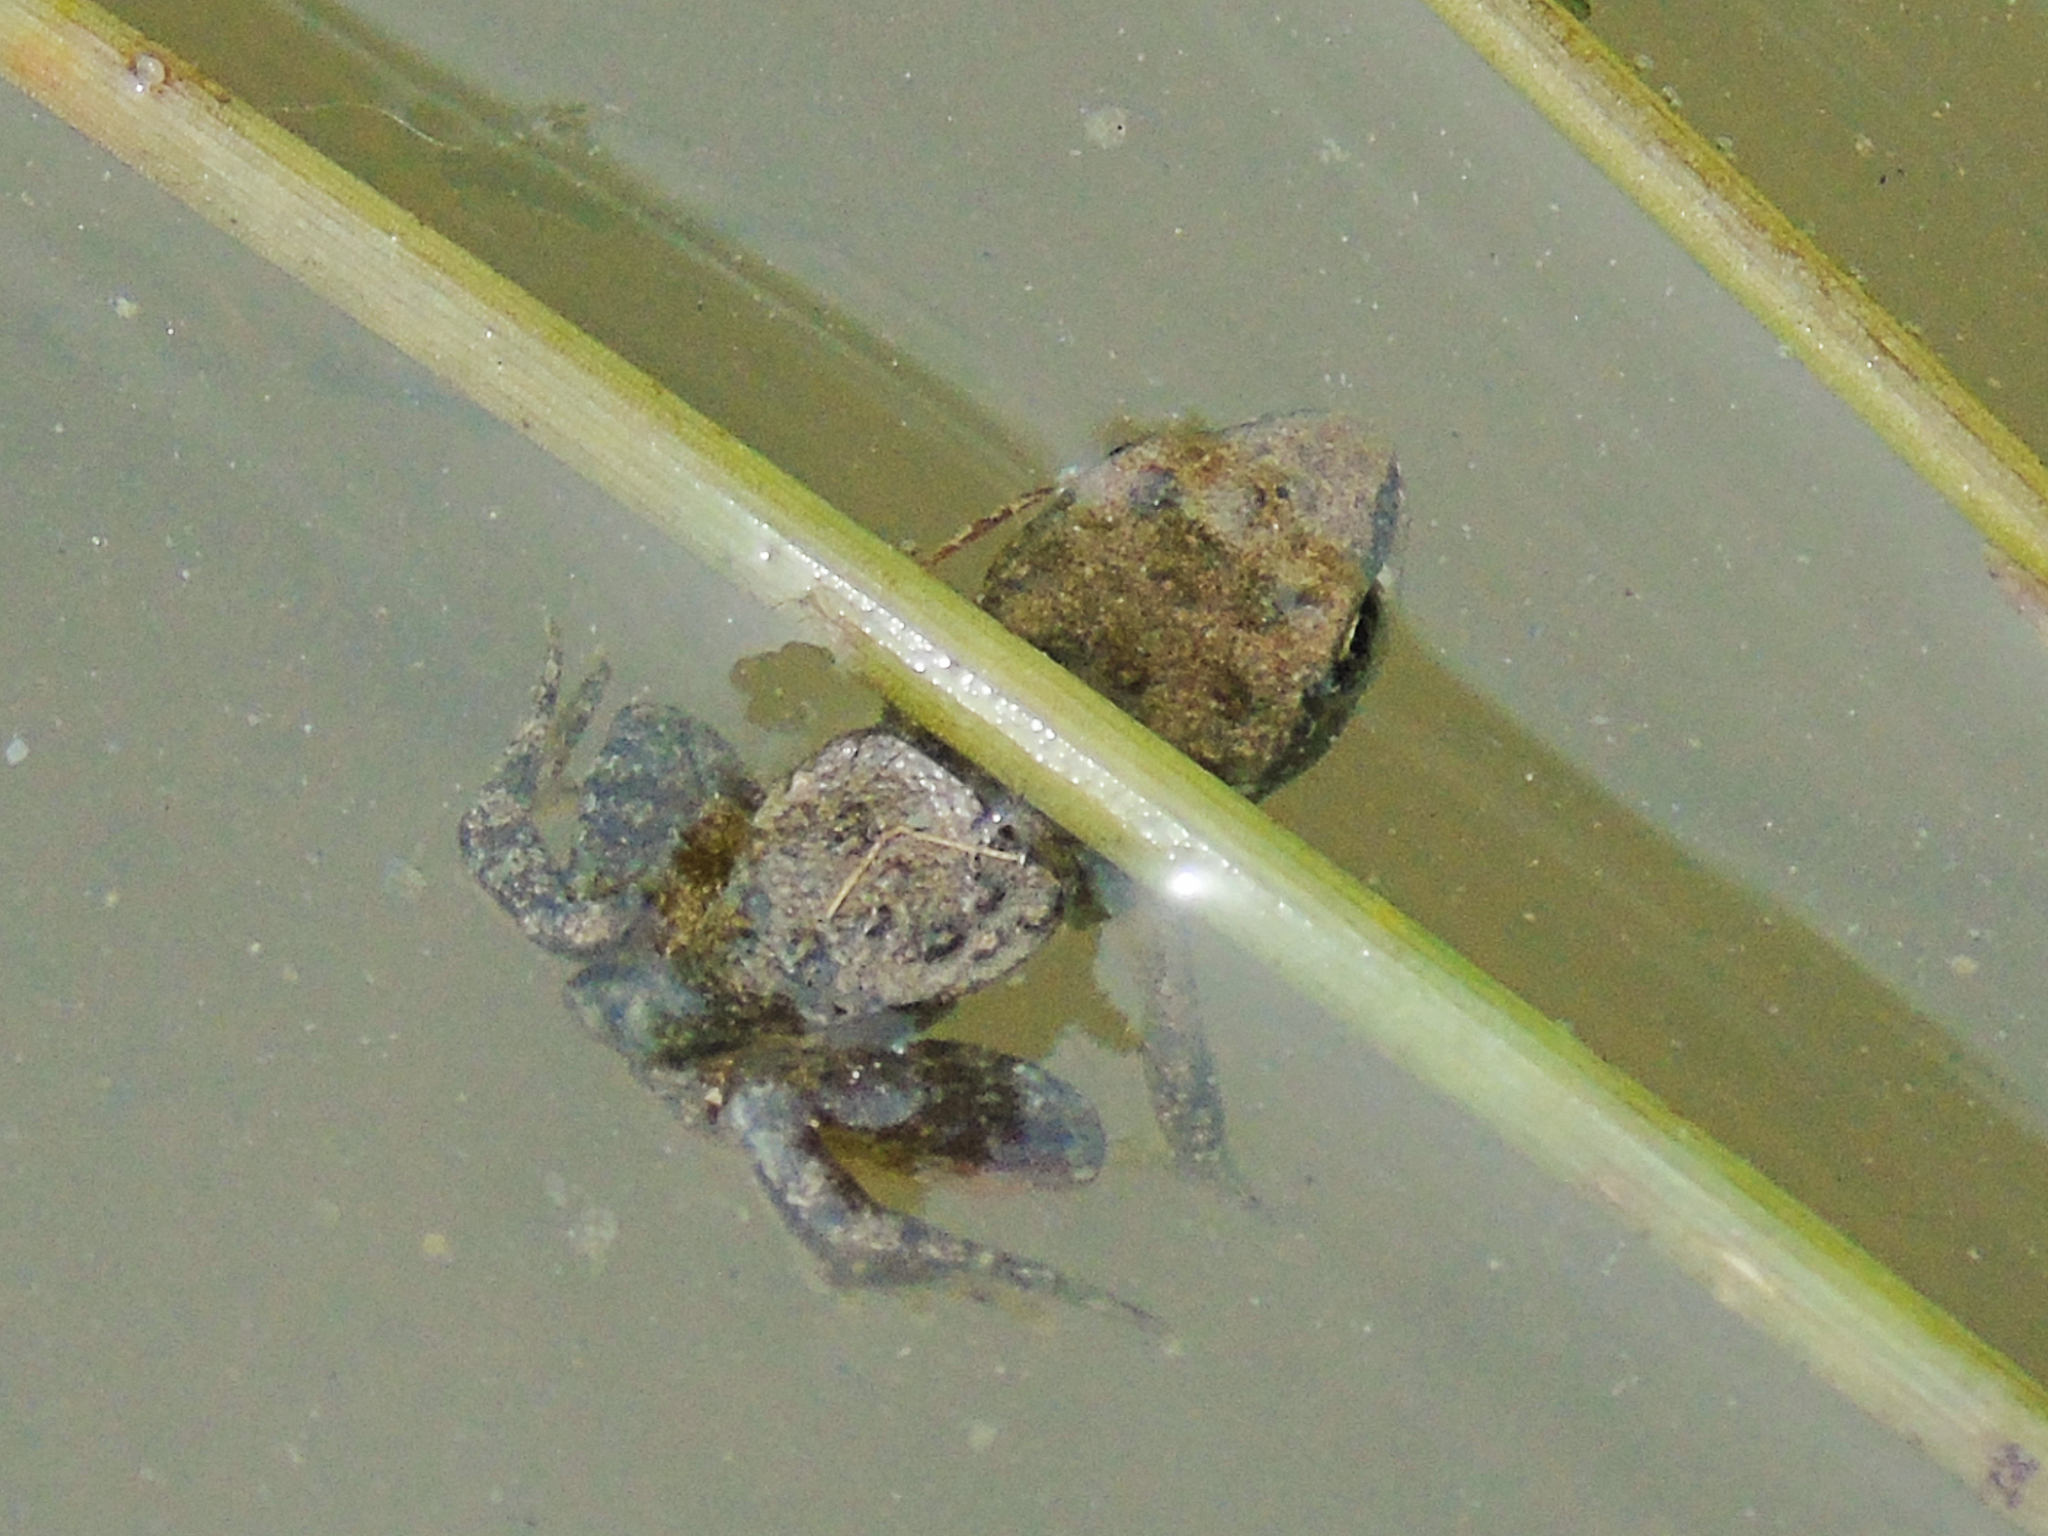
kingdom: Animalia
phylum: Chordata
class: Amphibia
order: Anura
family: Ranidae
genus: Rana
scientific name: Rana macrocnemis
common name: Banded frog
